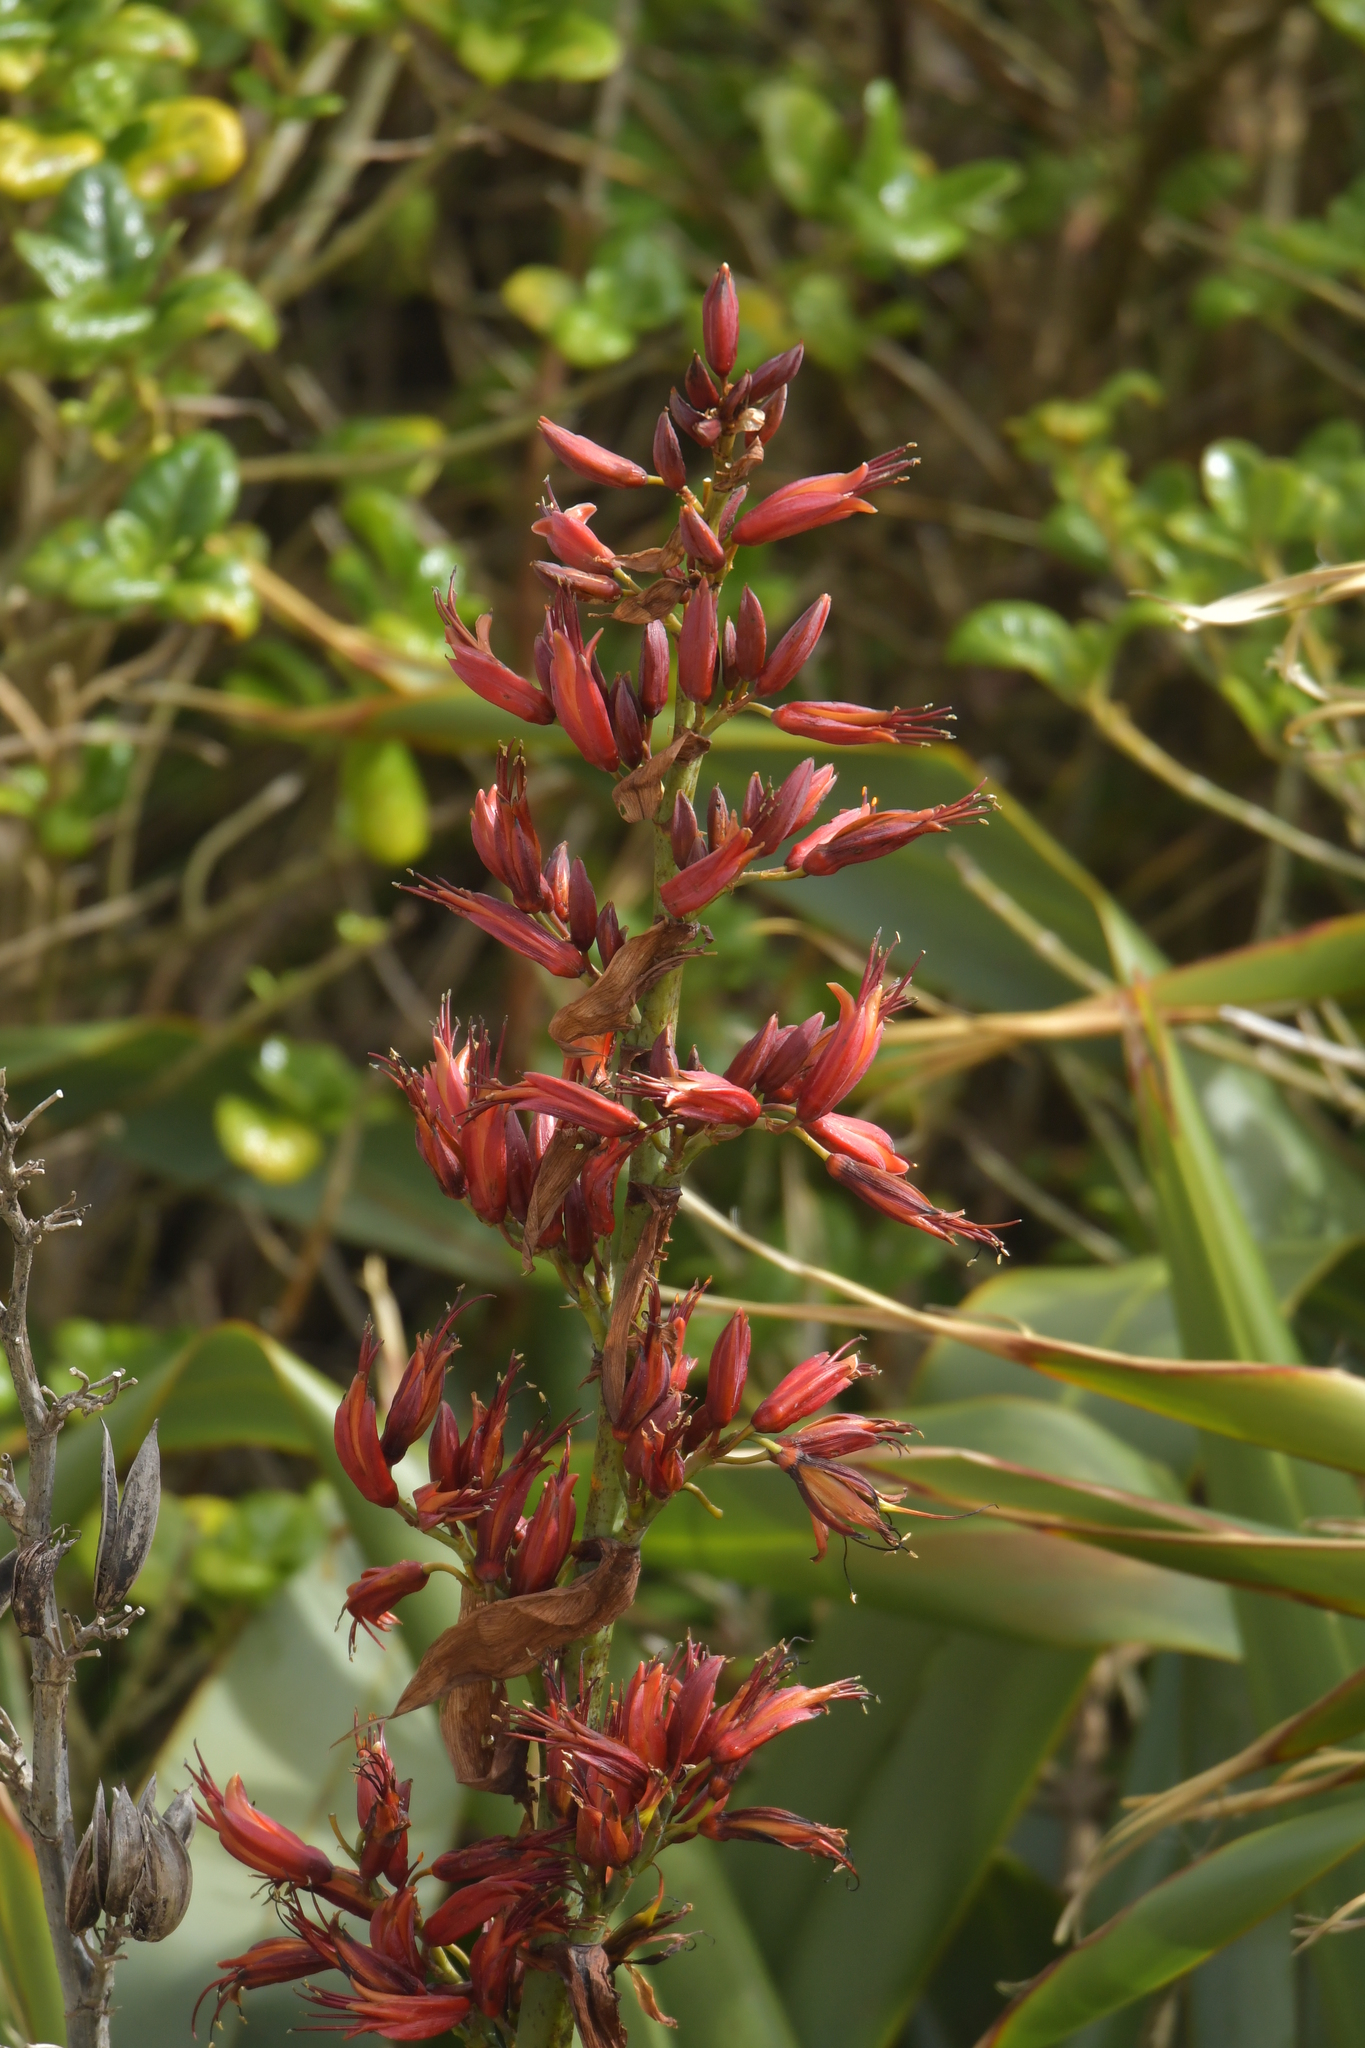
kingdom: Plantae
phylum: Tracheophyta
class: Liliopsida
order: Asparagales
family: Asphodelaceae
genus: Phormium
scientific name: Phormium tenax
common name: New zealand flax
